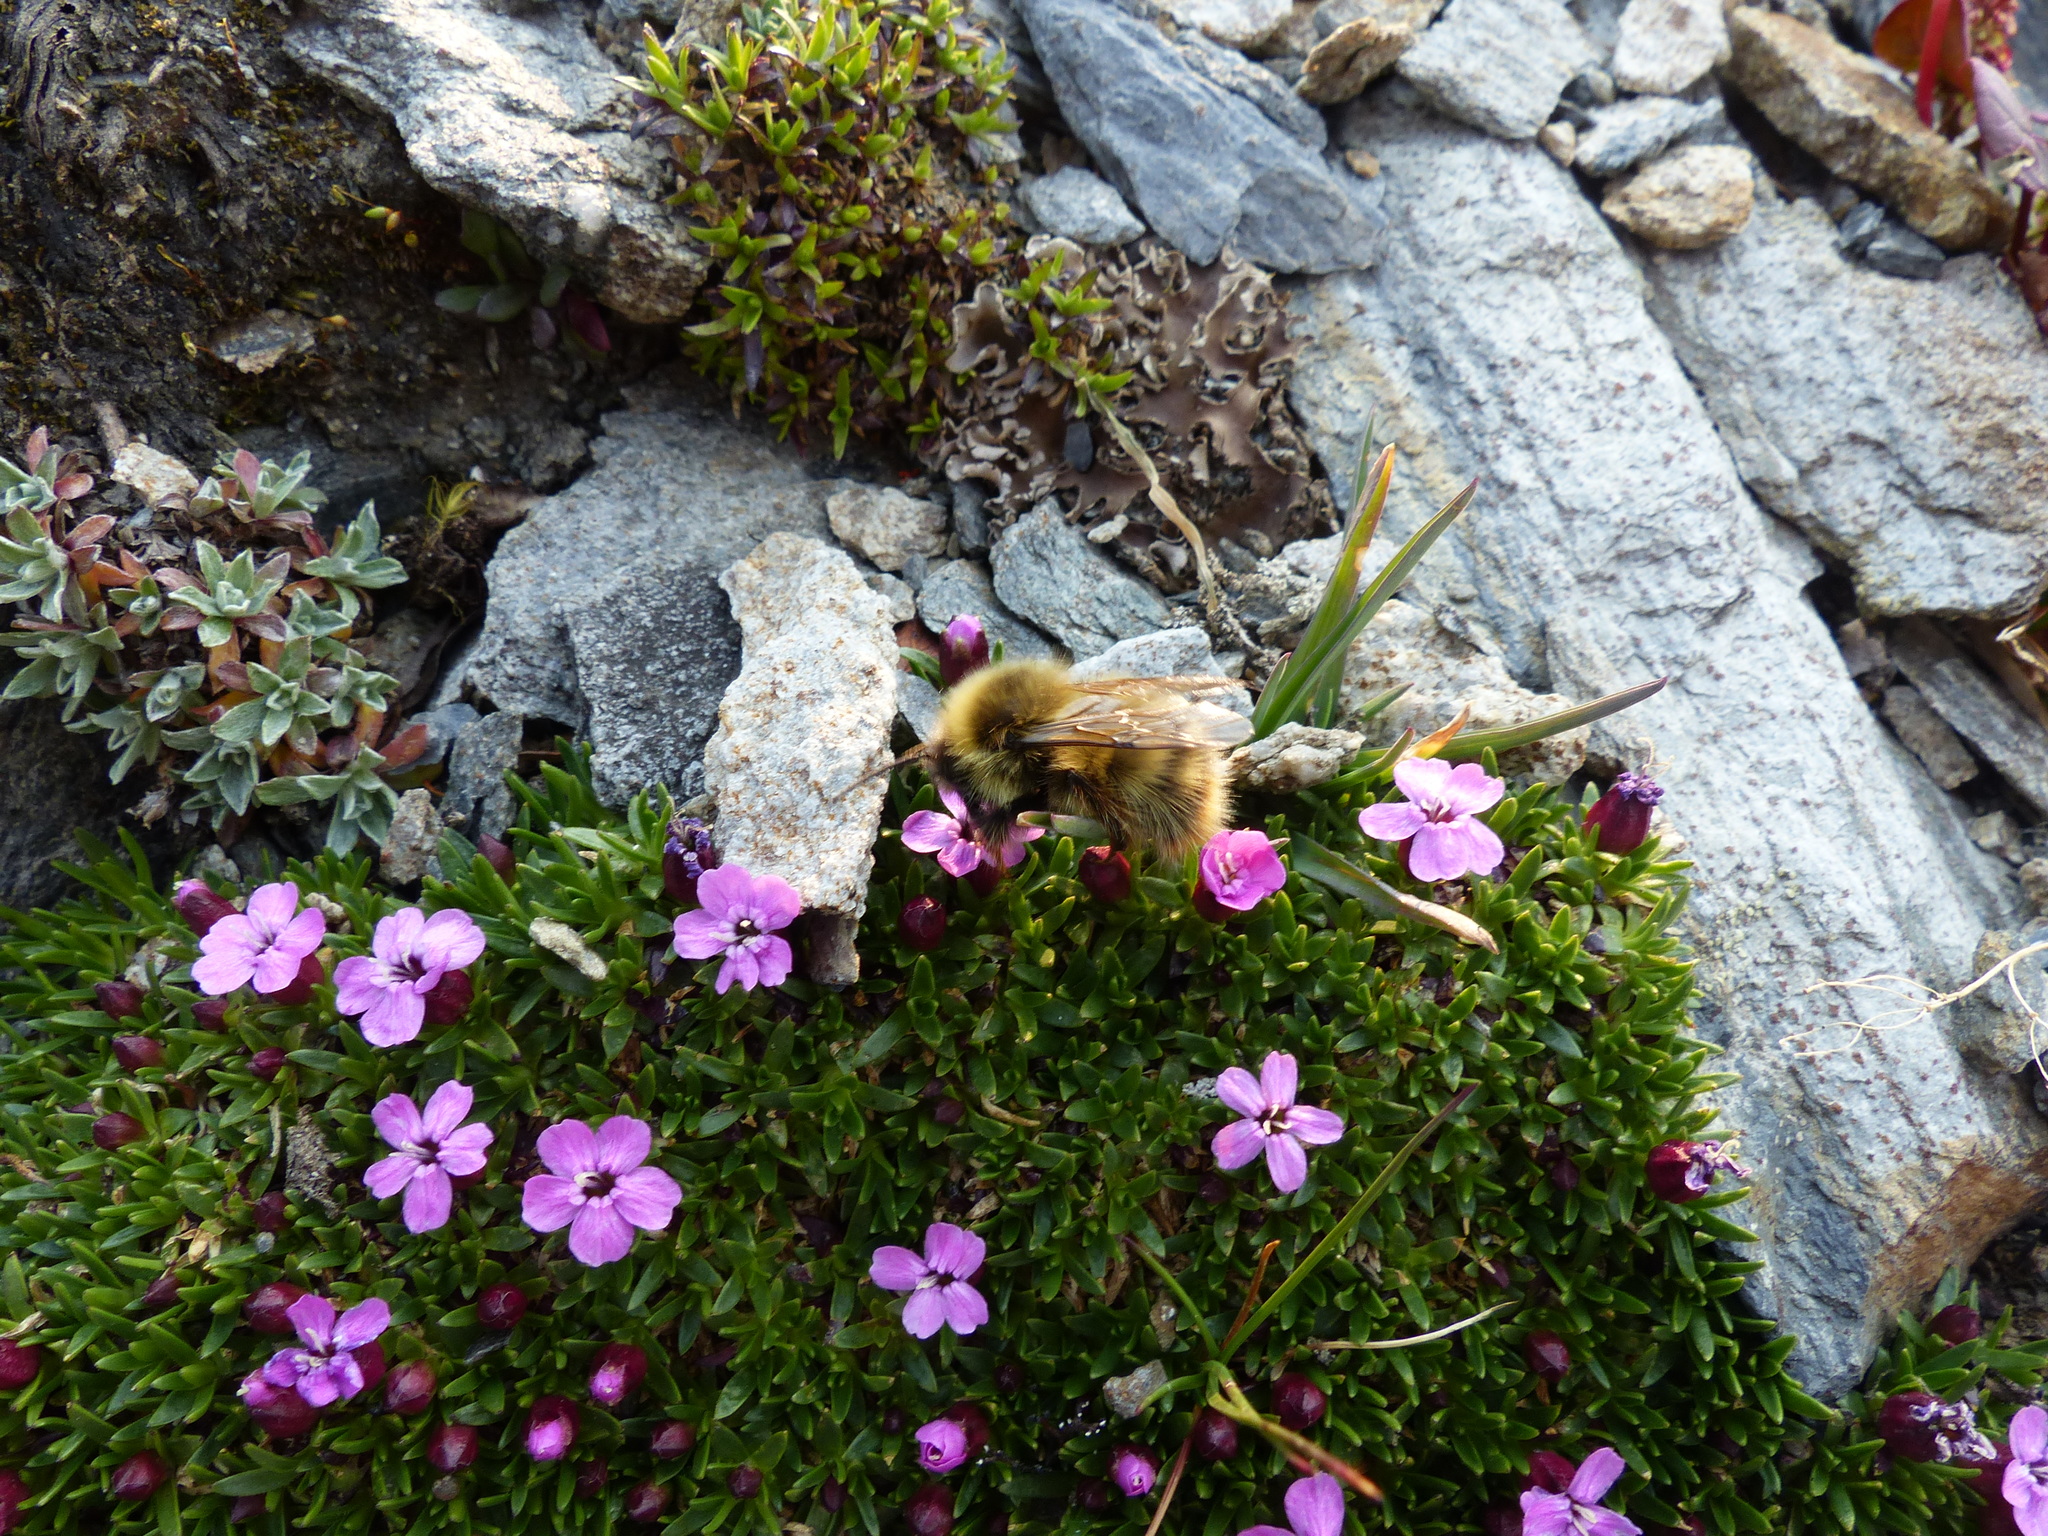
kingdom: Plantae
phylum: Tracheophyta
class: Magnoliopsida
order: Caryophyllales
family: Caryophyllaceae
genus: Silene
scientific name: Silene acaulis
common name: Moss campion
